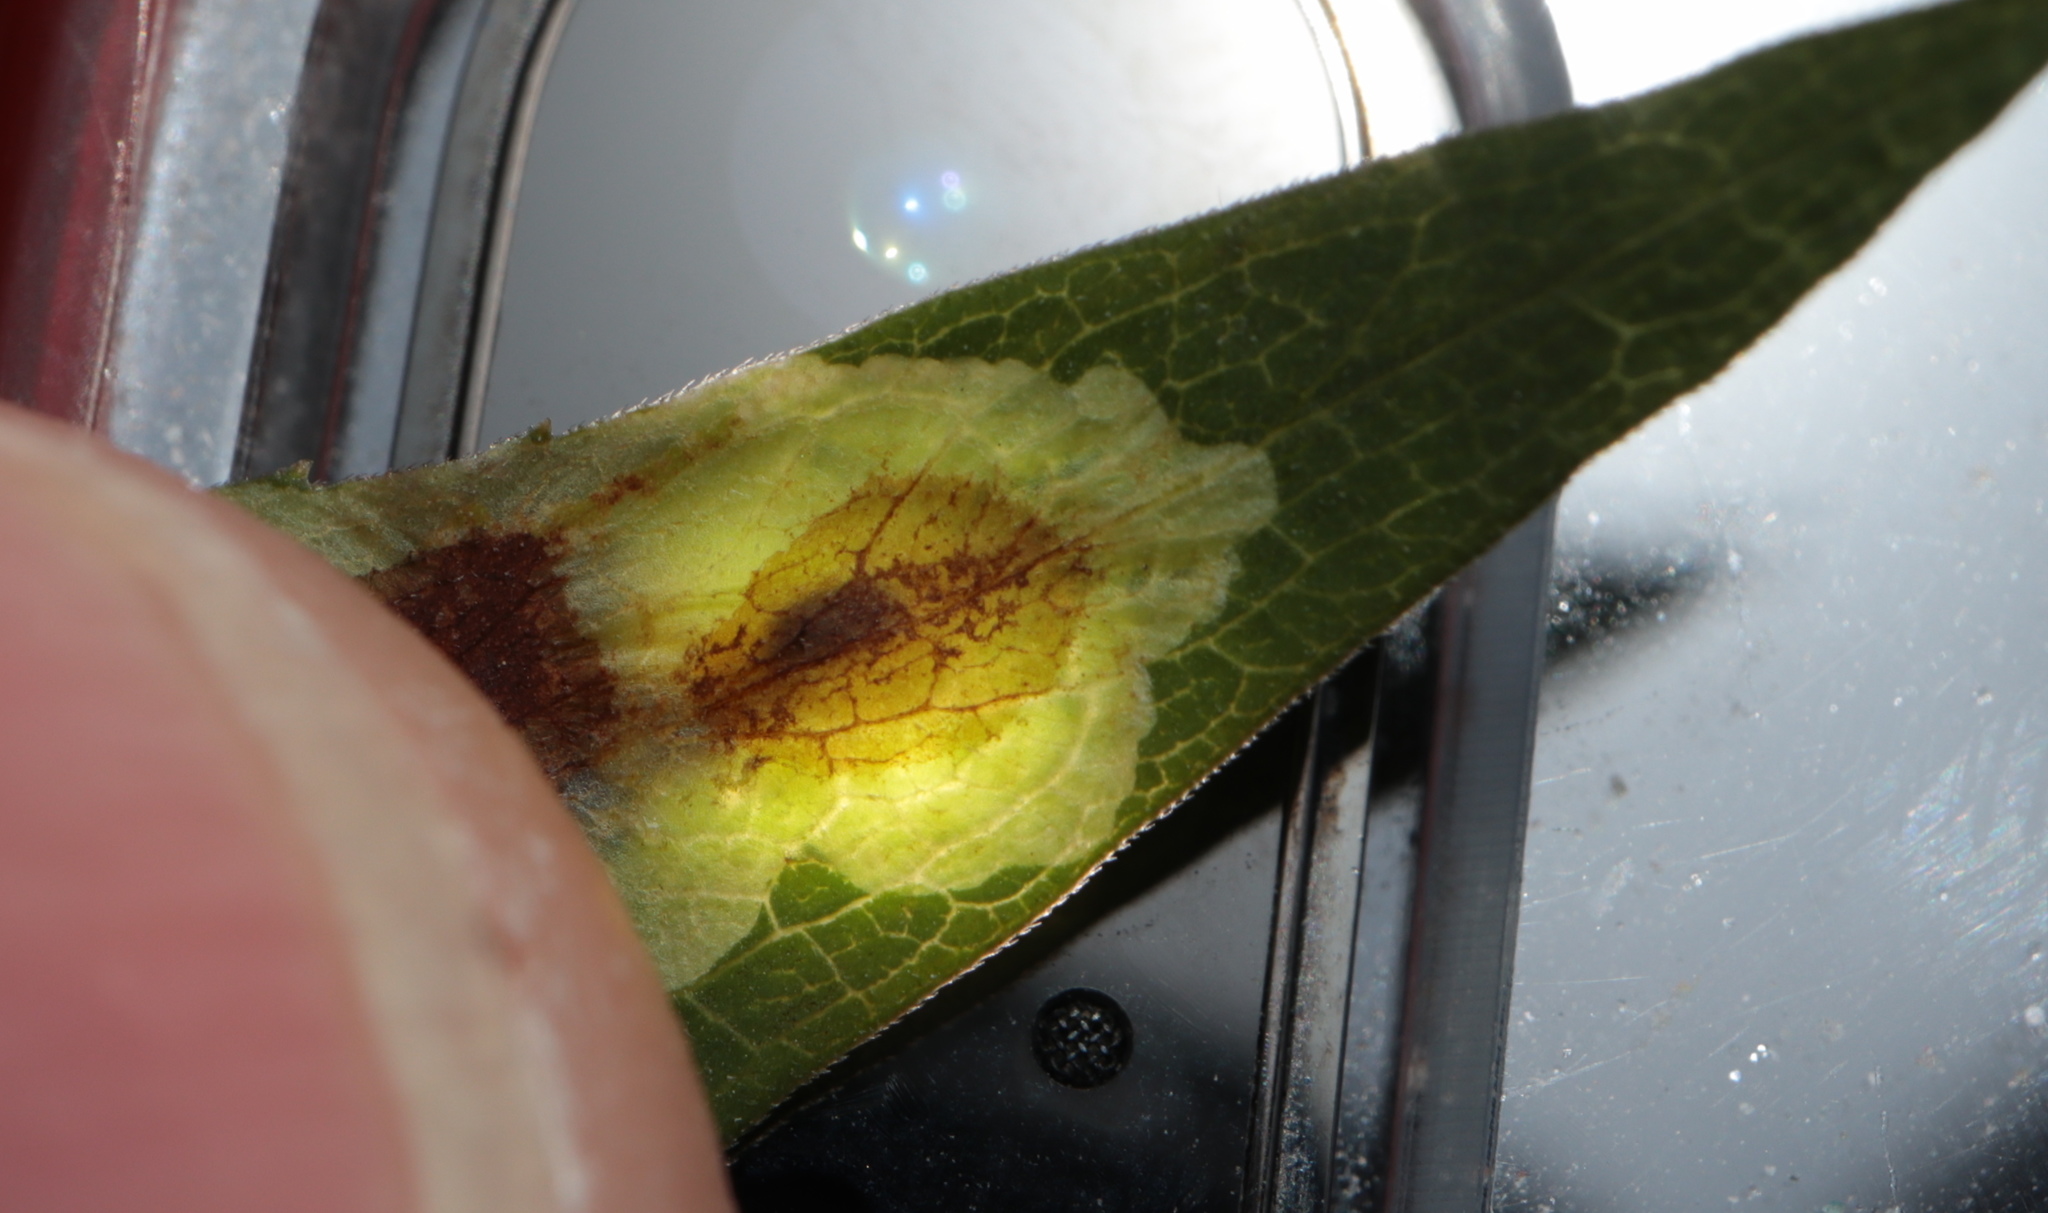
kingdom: Animalia
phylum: Arthropoda
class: Insecta
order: Diptera
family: Agromyzidae
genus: Calycomyza
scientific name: Calycomyza promissa
